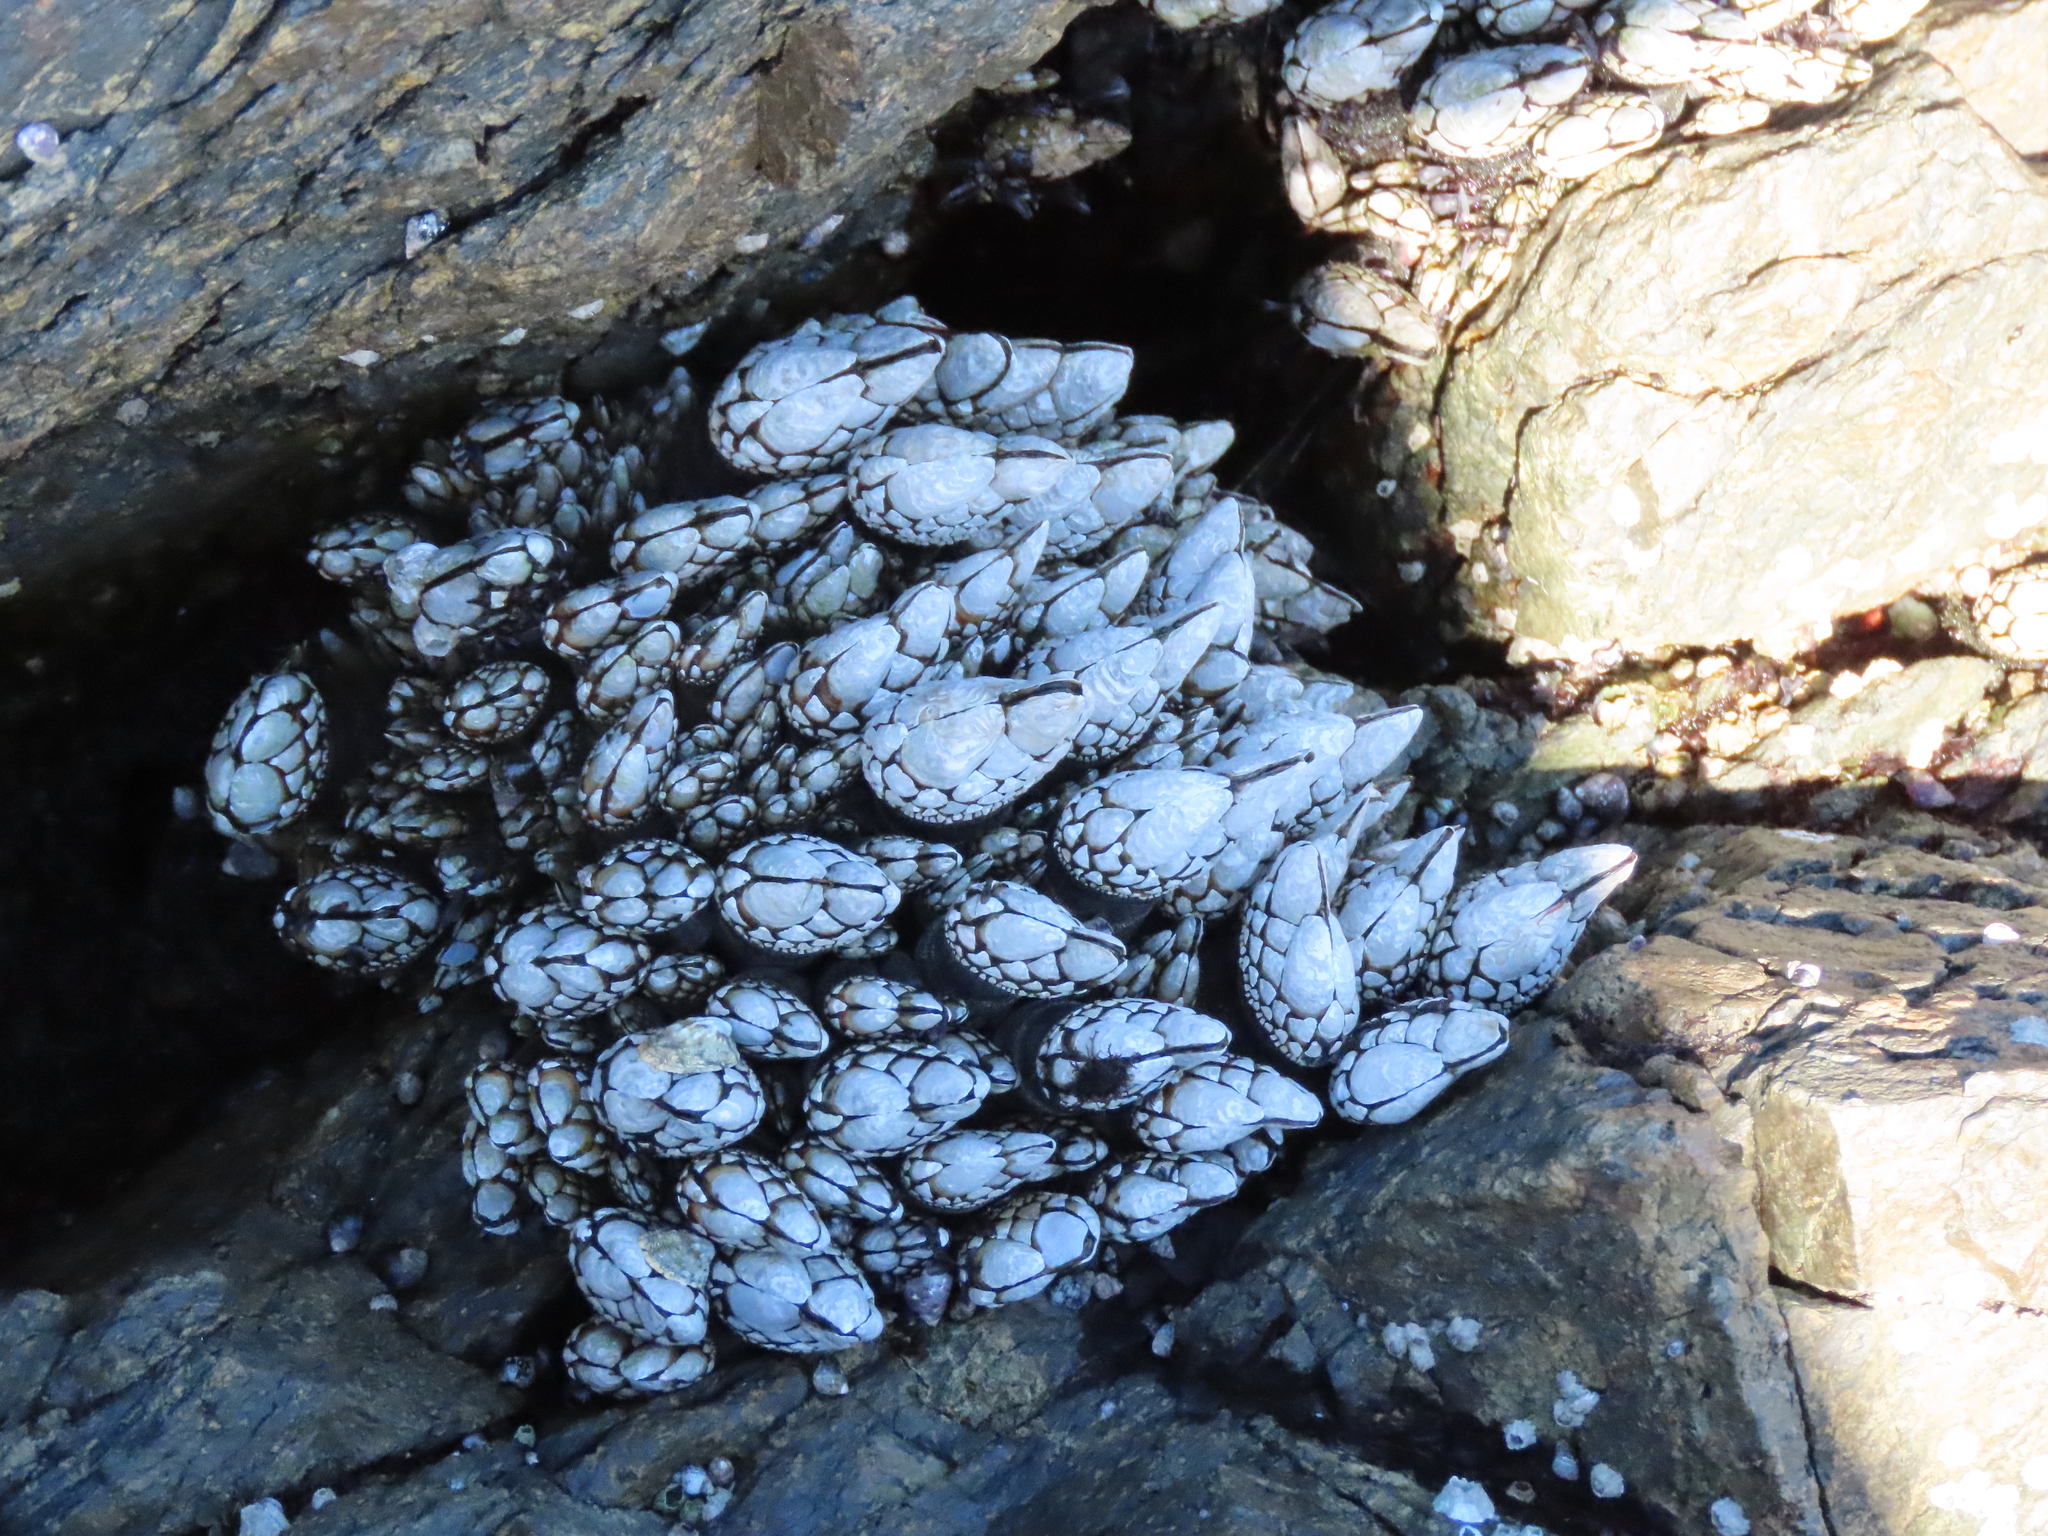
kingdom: Animalia
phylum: Arthropoda
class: Maxillopoda
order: Pedunculata
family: Pollicipedidae
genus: Pollicipes
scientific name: Pollicipes polymerus
